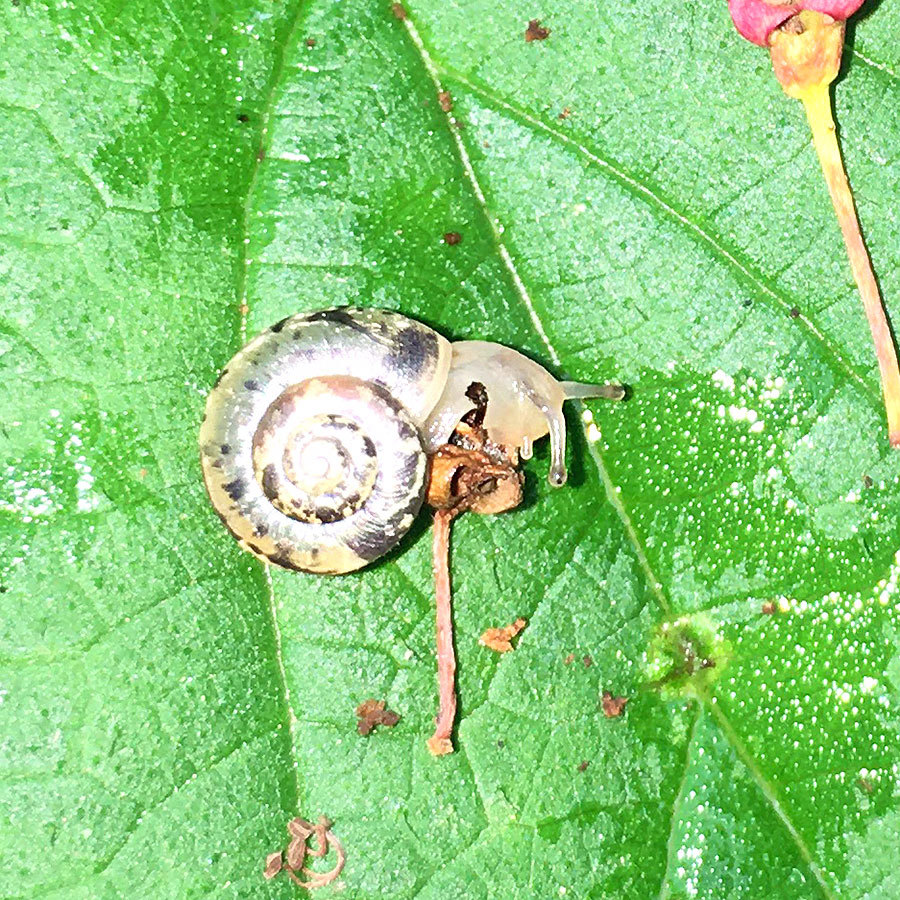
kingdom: Animalia
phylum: Mollusca
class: Gastropoda
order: Stylommatophora
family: Hygromiidae
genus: Urticicola
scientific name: Urticicola umbrosus
